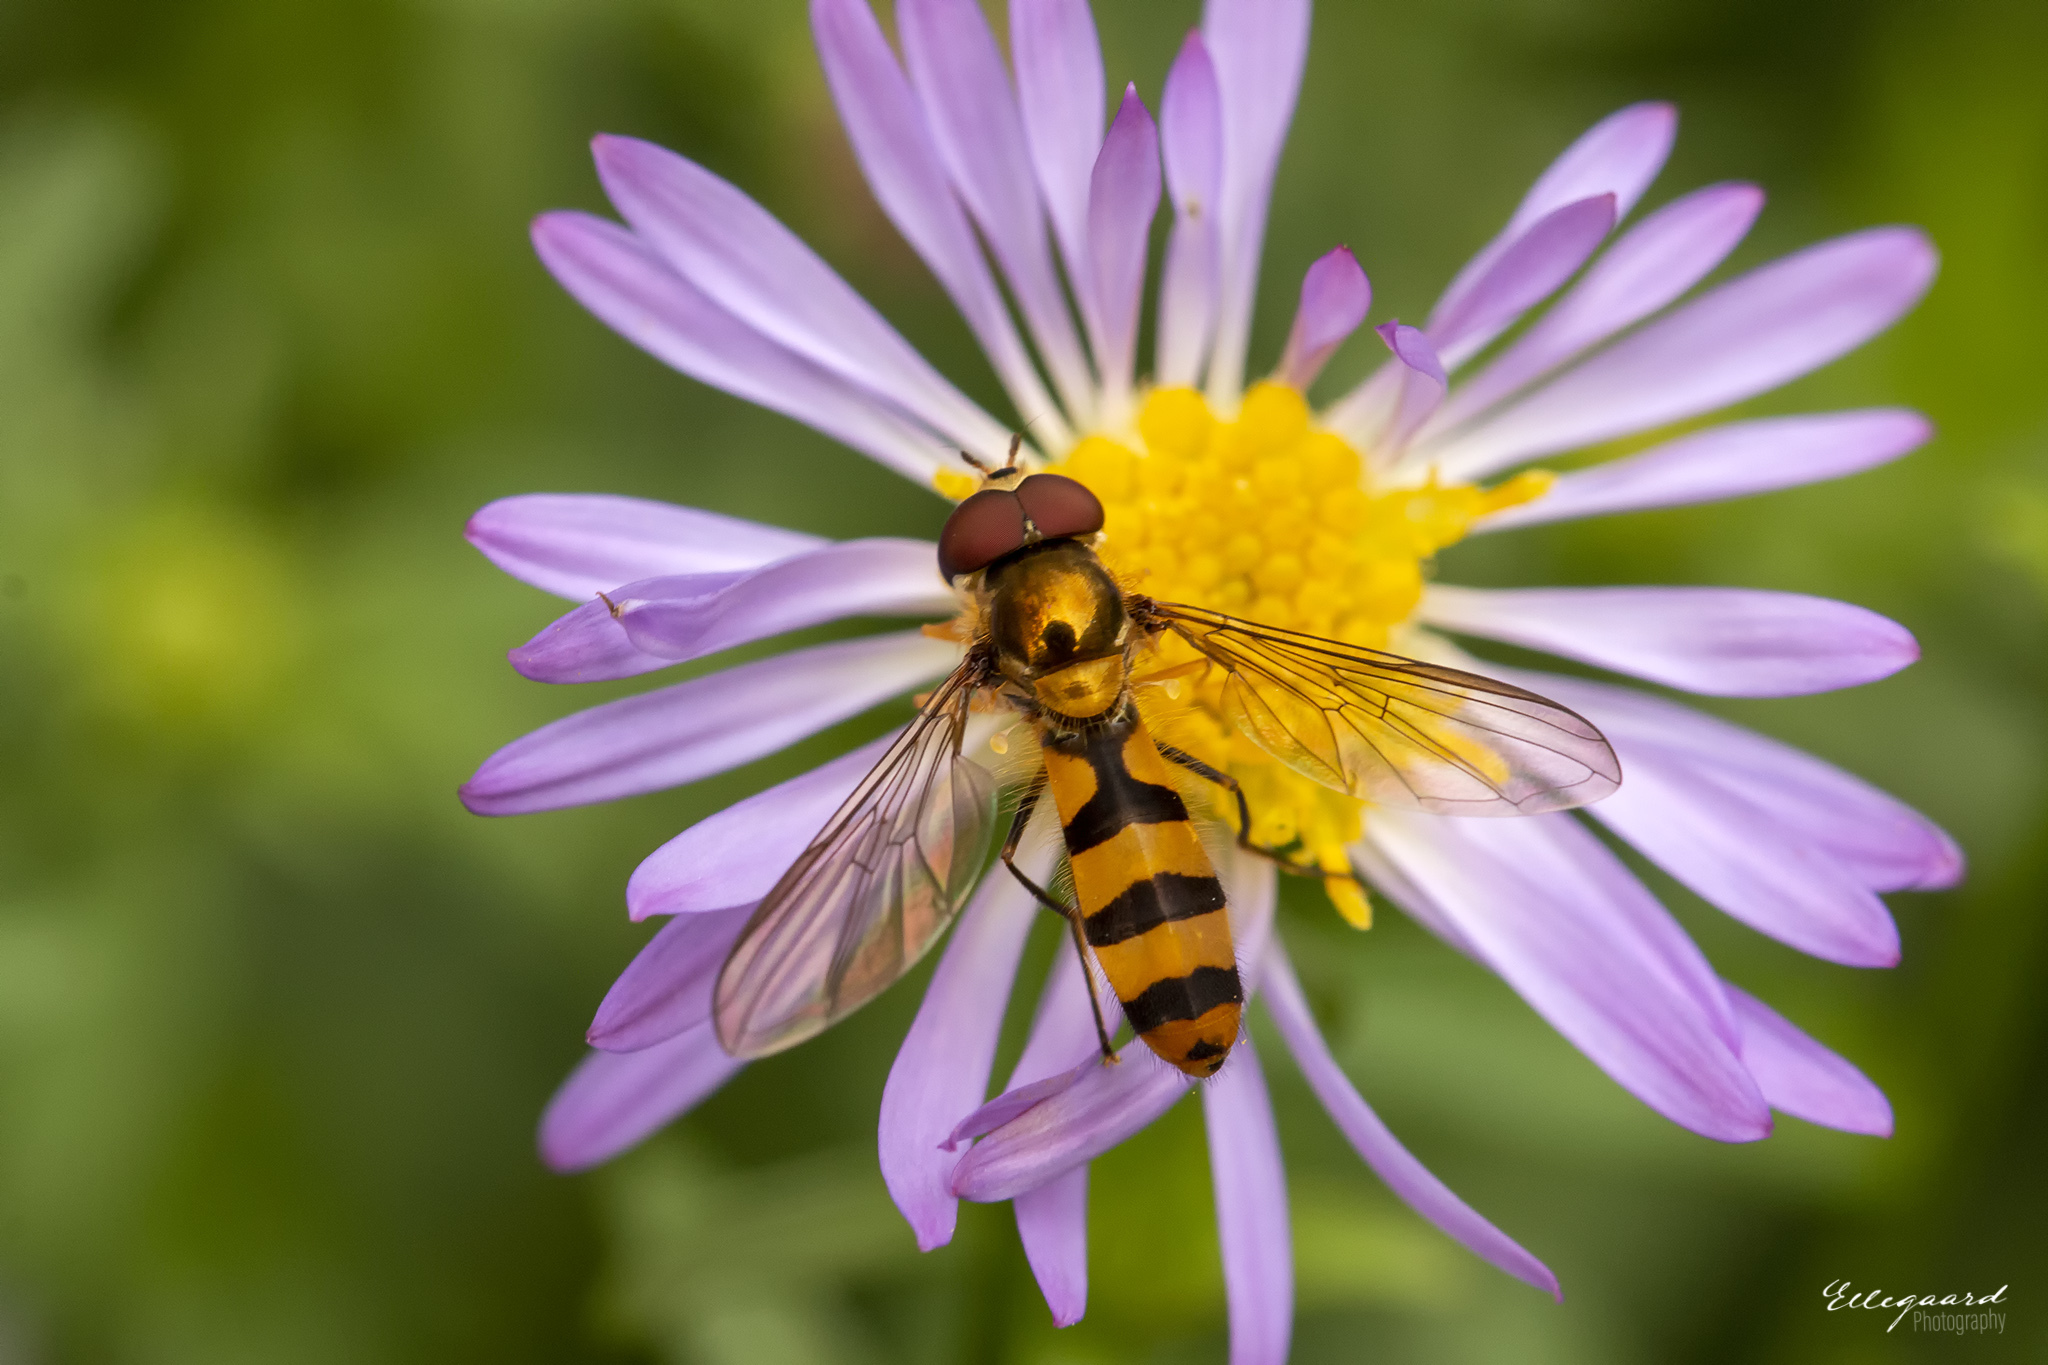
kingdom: Animalia
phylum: Arthropoda
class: Insecta
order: Diptera
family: Syrphidae
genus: Meliscaeva
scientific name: Meliscaeva cinctella
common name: American thintail fly
